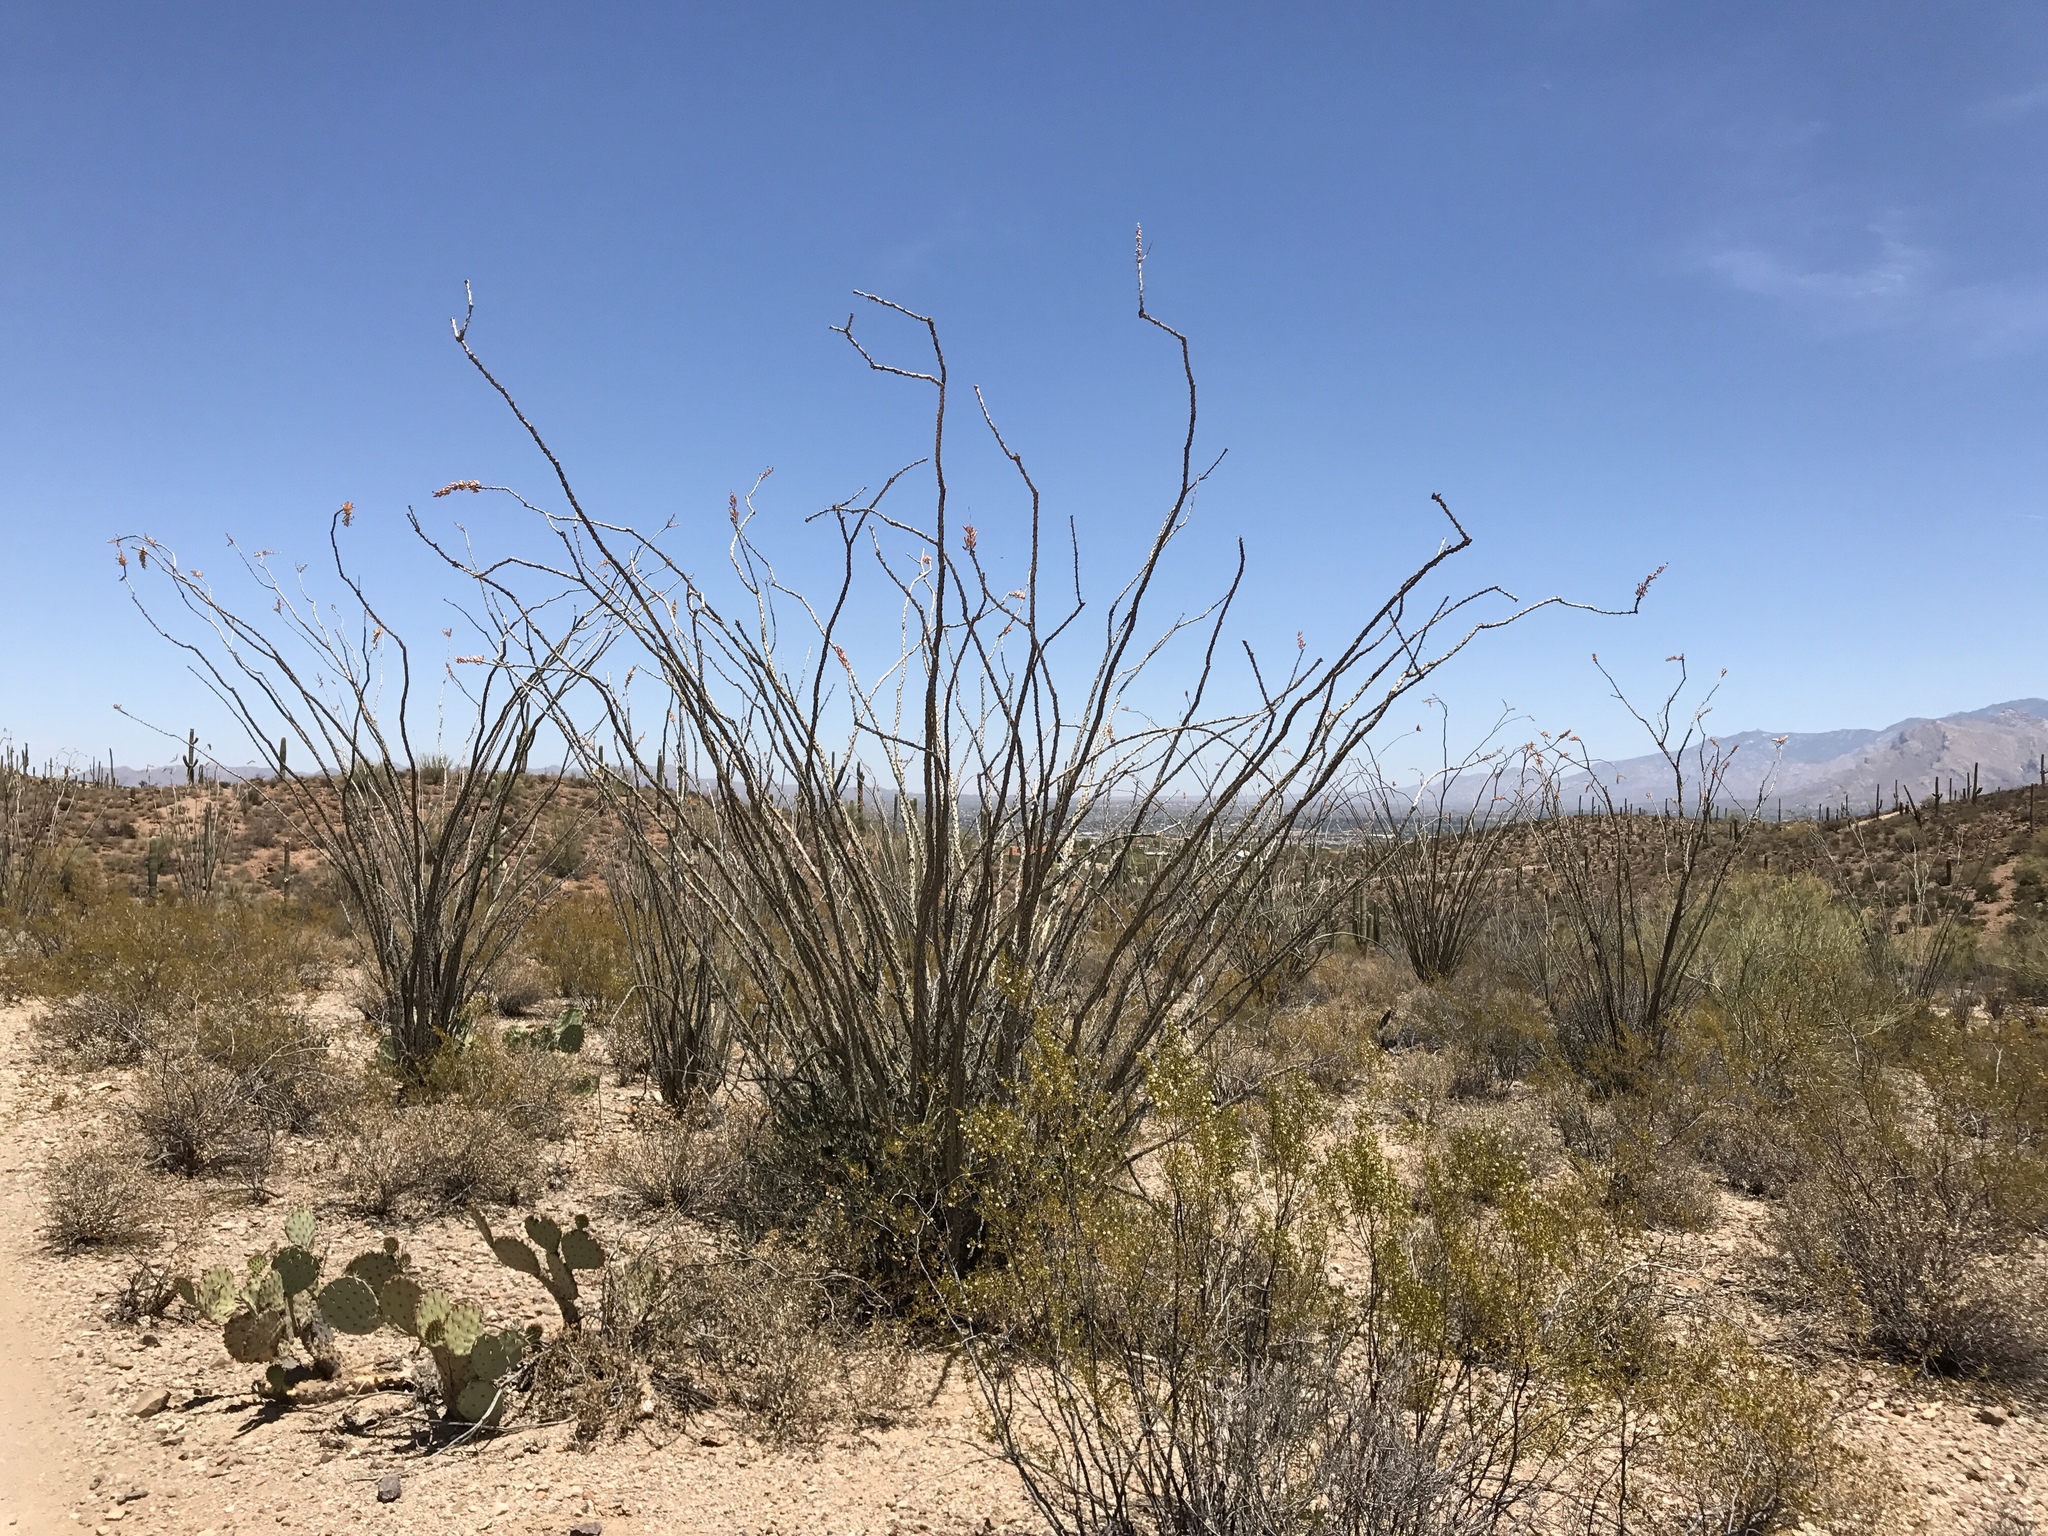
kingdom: Plantae
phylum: Tracheophyta
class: Magnoliopsida
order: Ericales
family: Fouquieriaceae
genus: Fouquieria
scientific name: Fouquieria splendens
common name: Vine-cactus
